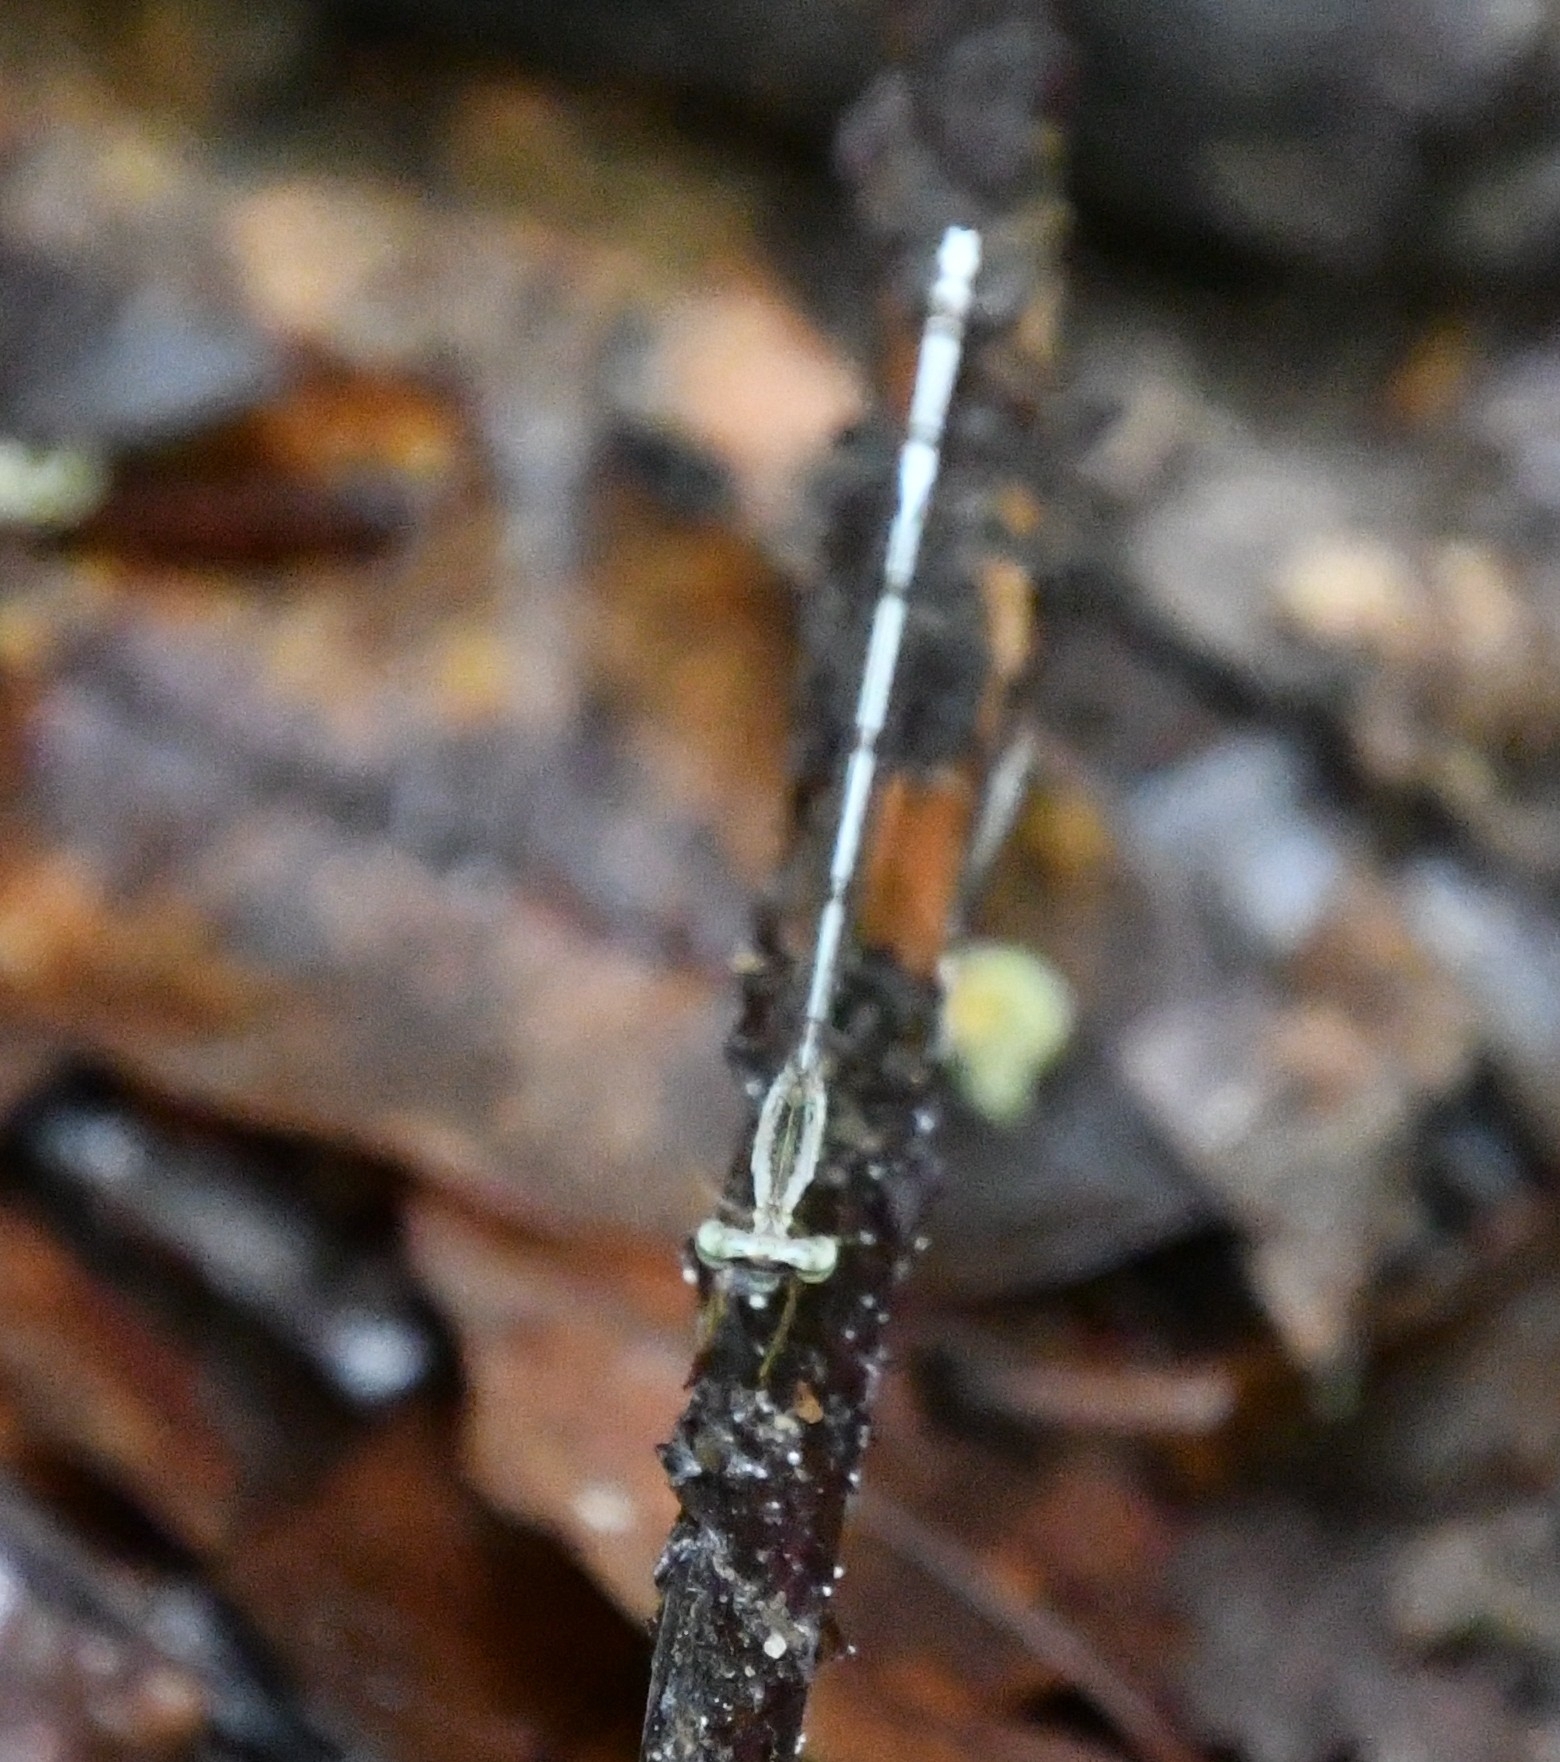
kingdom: Animalia
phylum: Arthropoda
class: Insecta
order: Odonata
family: Platycnemididae
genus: Copera
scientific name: Copera vittata
